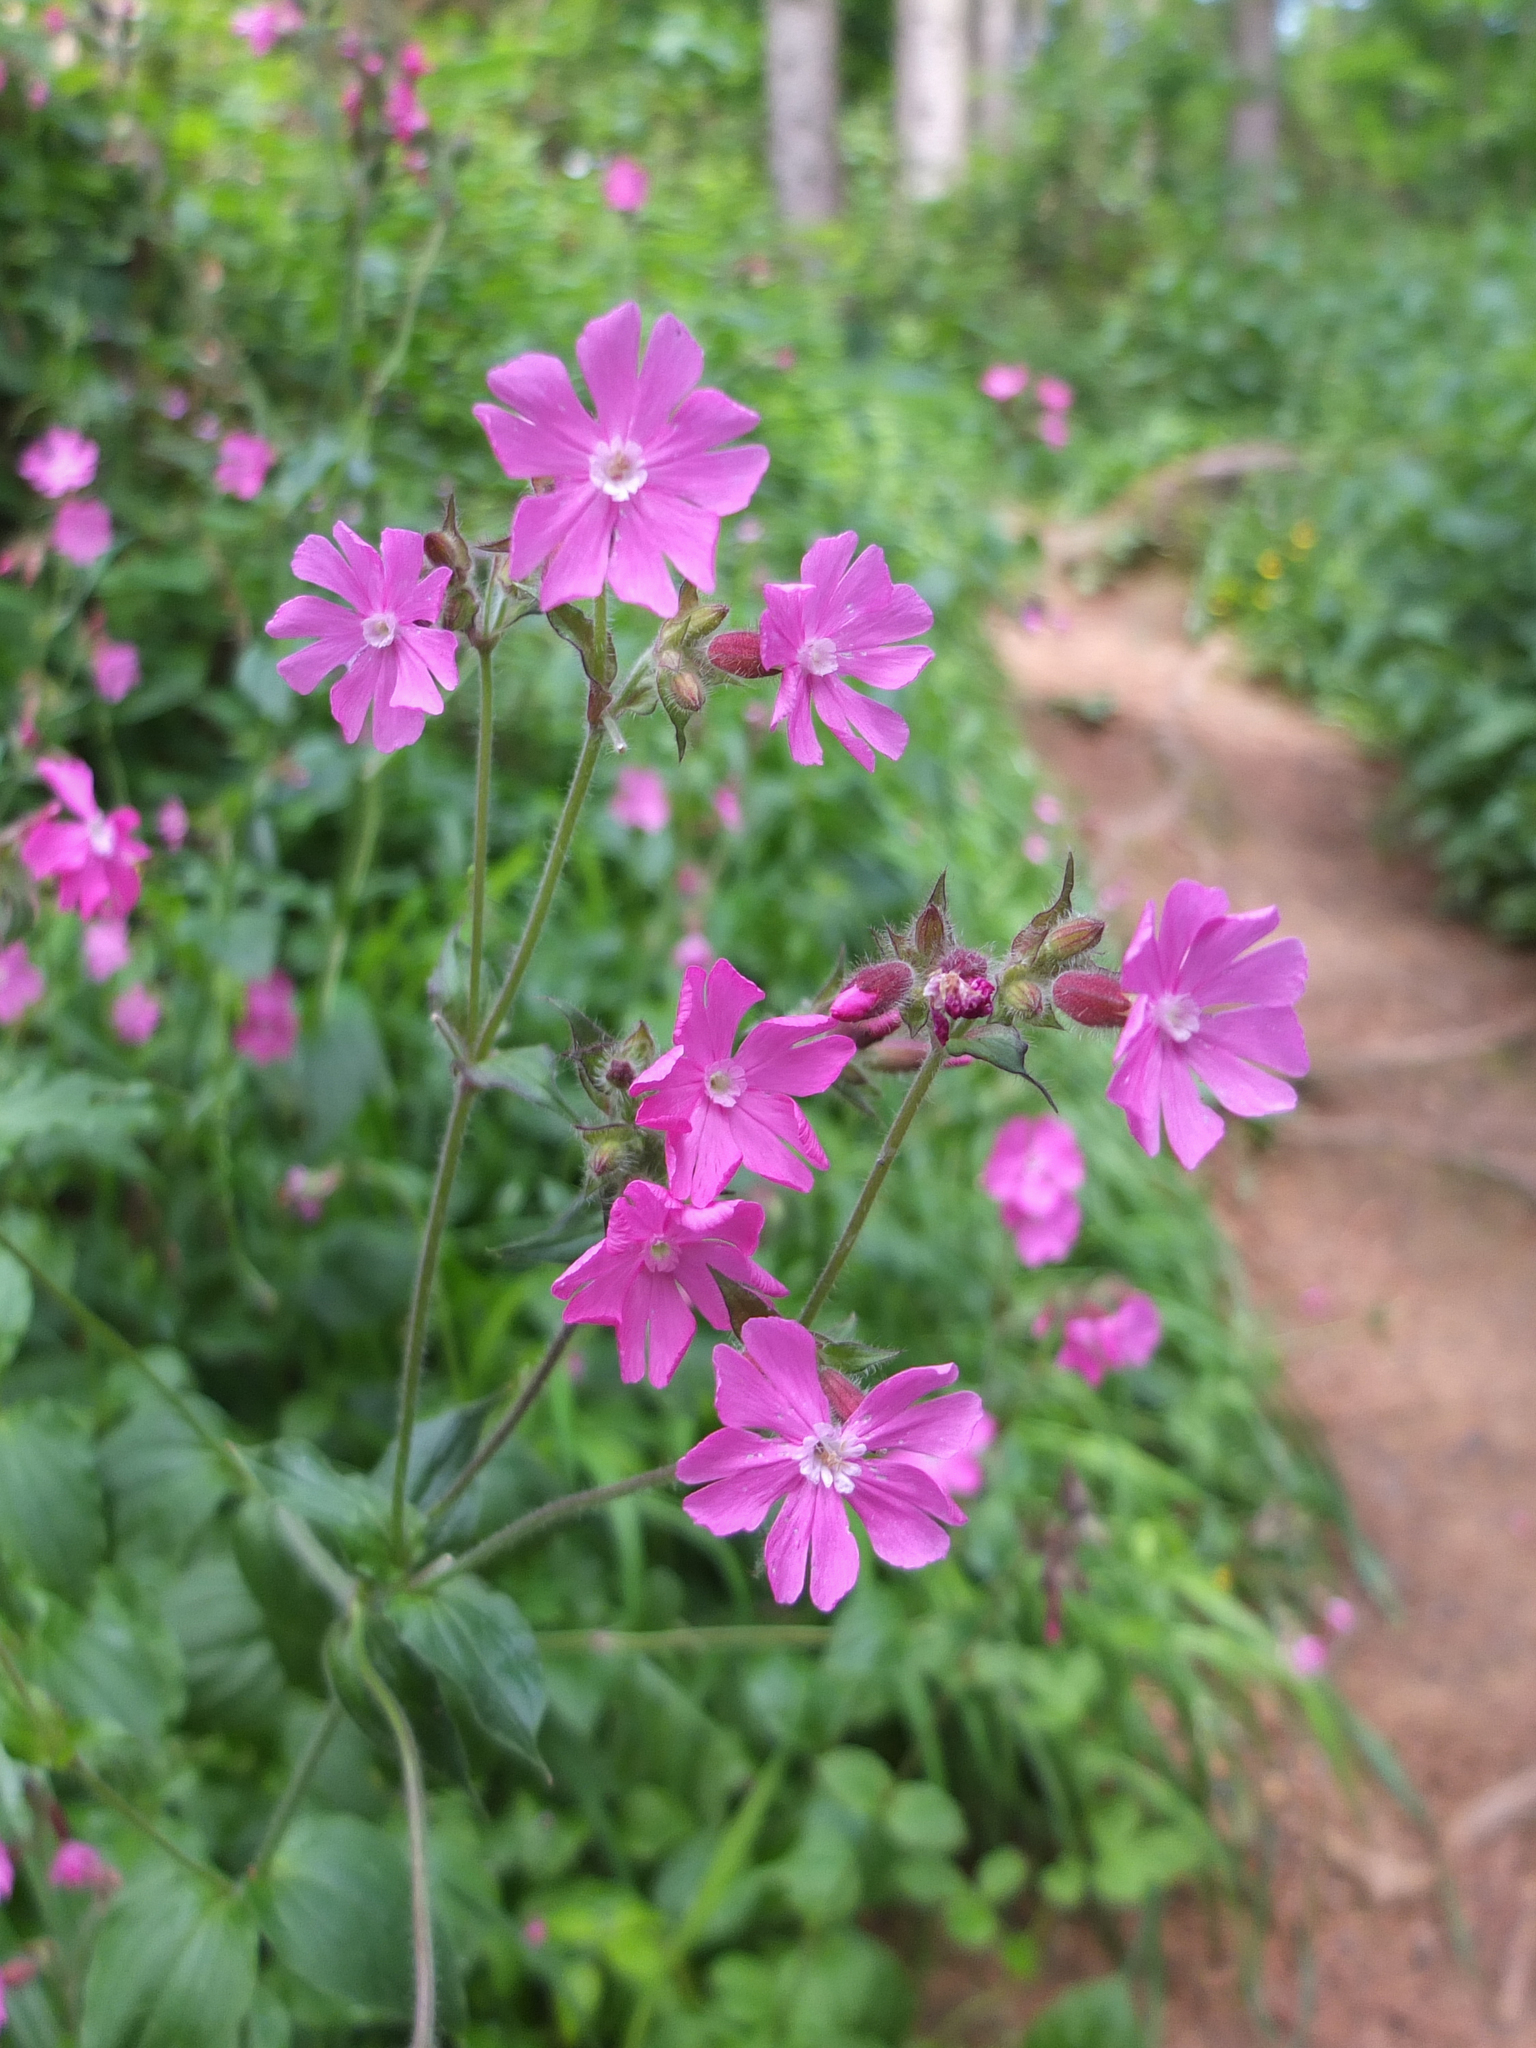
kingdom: Plantae
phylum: Tracheophyta
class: Magnoliopsida
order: Caryophyllales
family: Caryophyllaceae
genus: Silene
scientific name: Silene dioica
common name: Red campion
